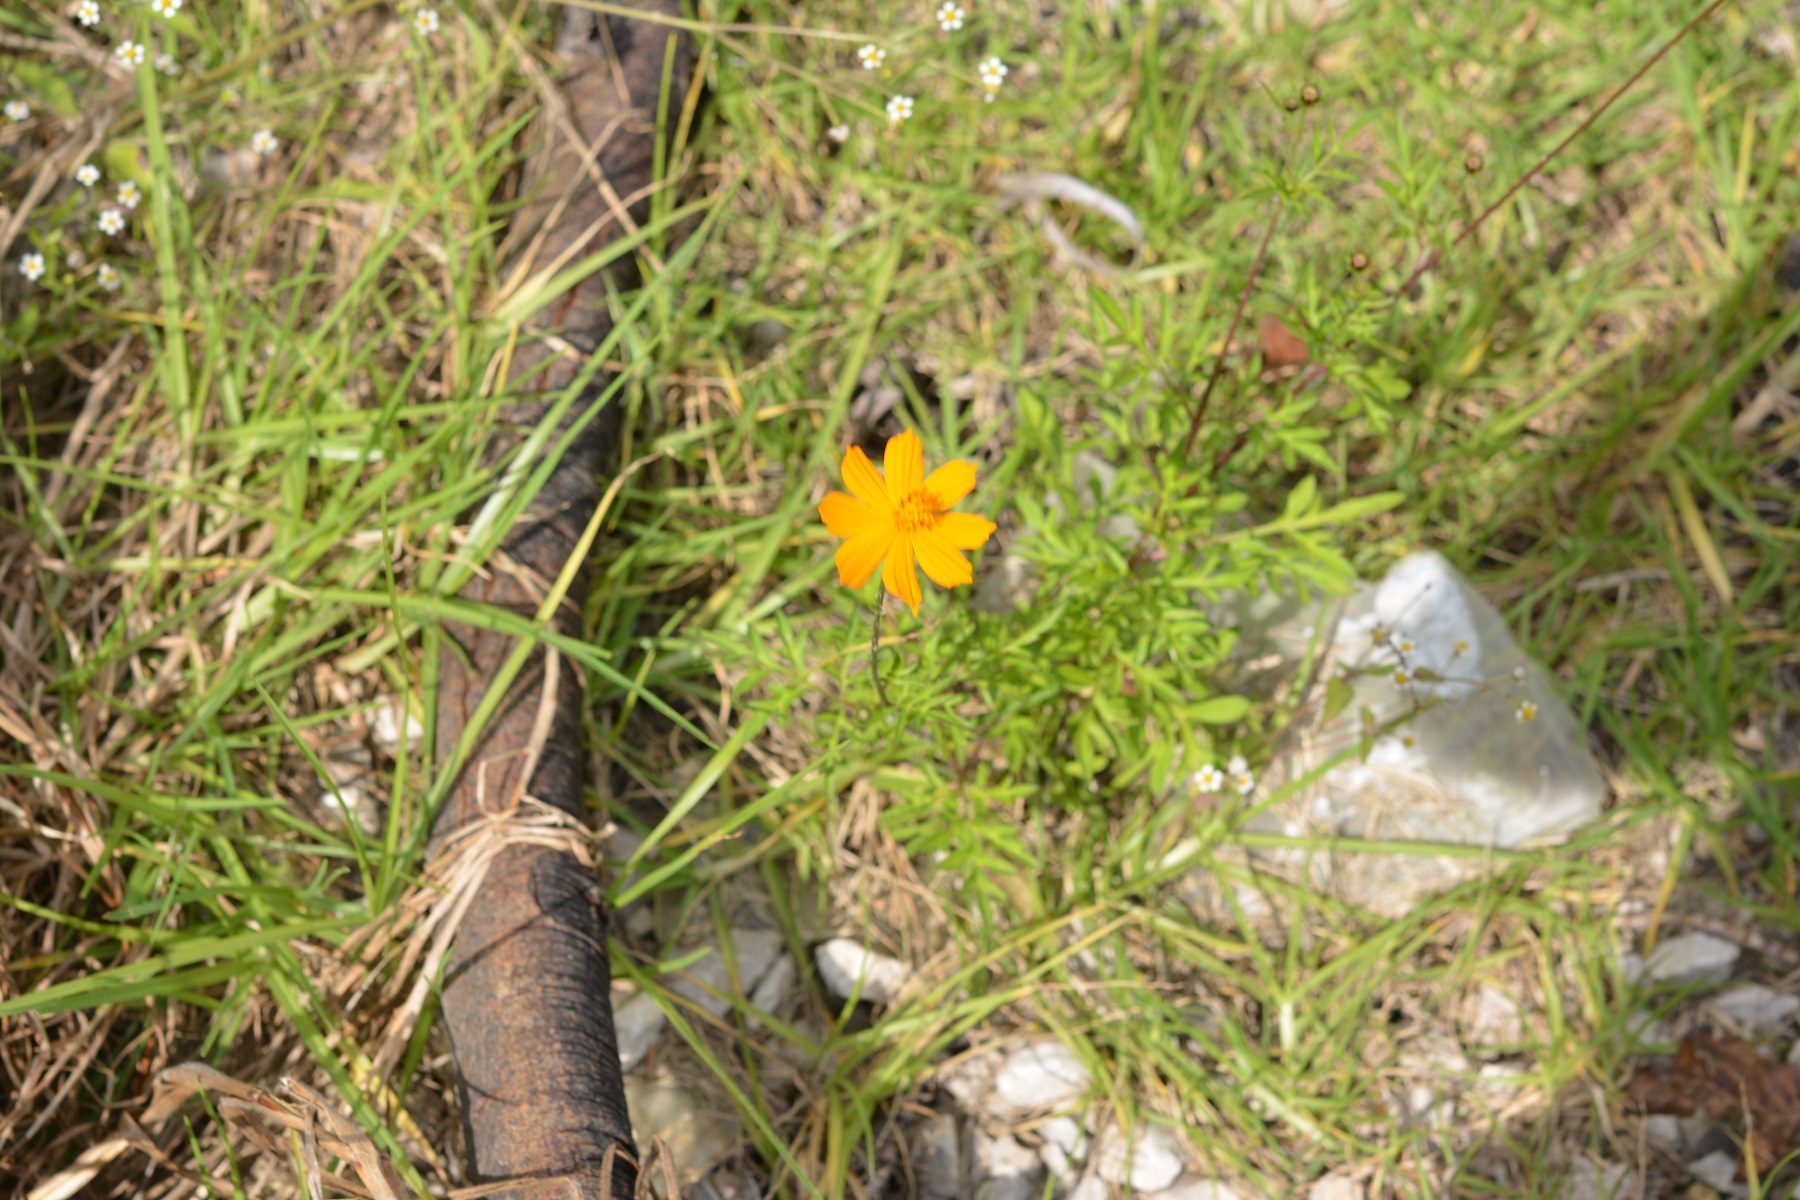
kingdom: Plantae
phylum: Tracheophyta
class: Magnoliopsida
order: Asterales
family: Asteraceae
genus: Cosmos
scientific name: Cosmos sulphureus
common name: Sulphur cosmos
